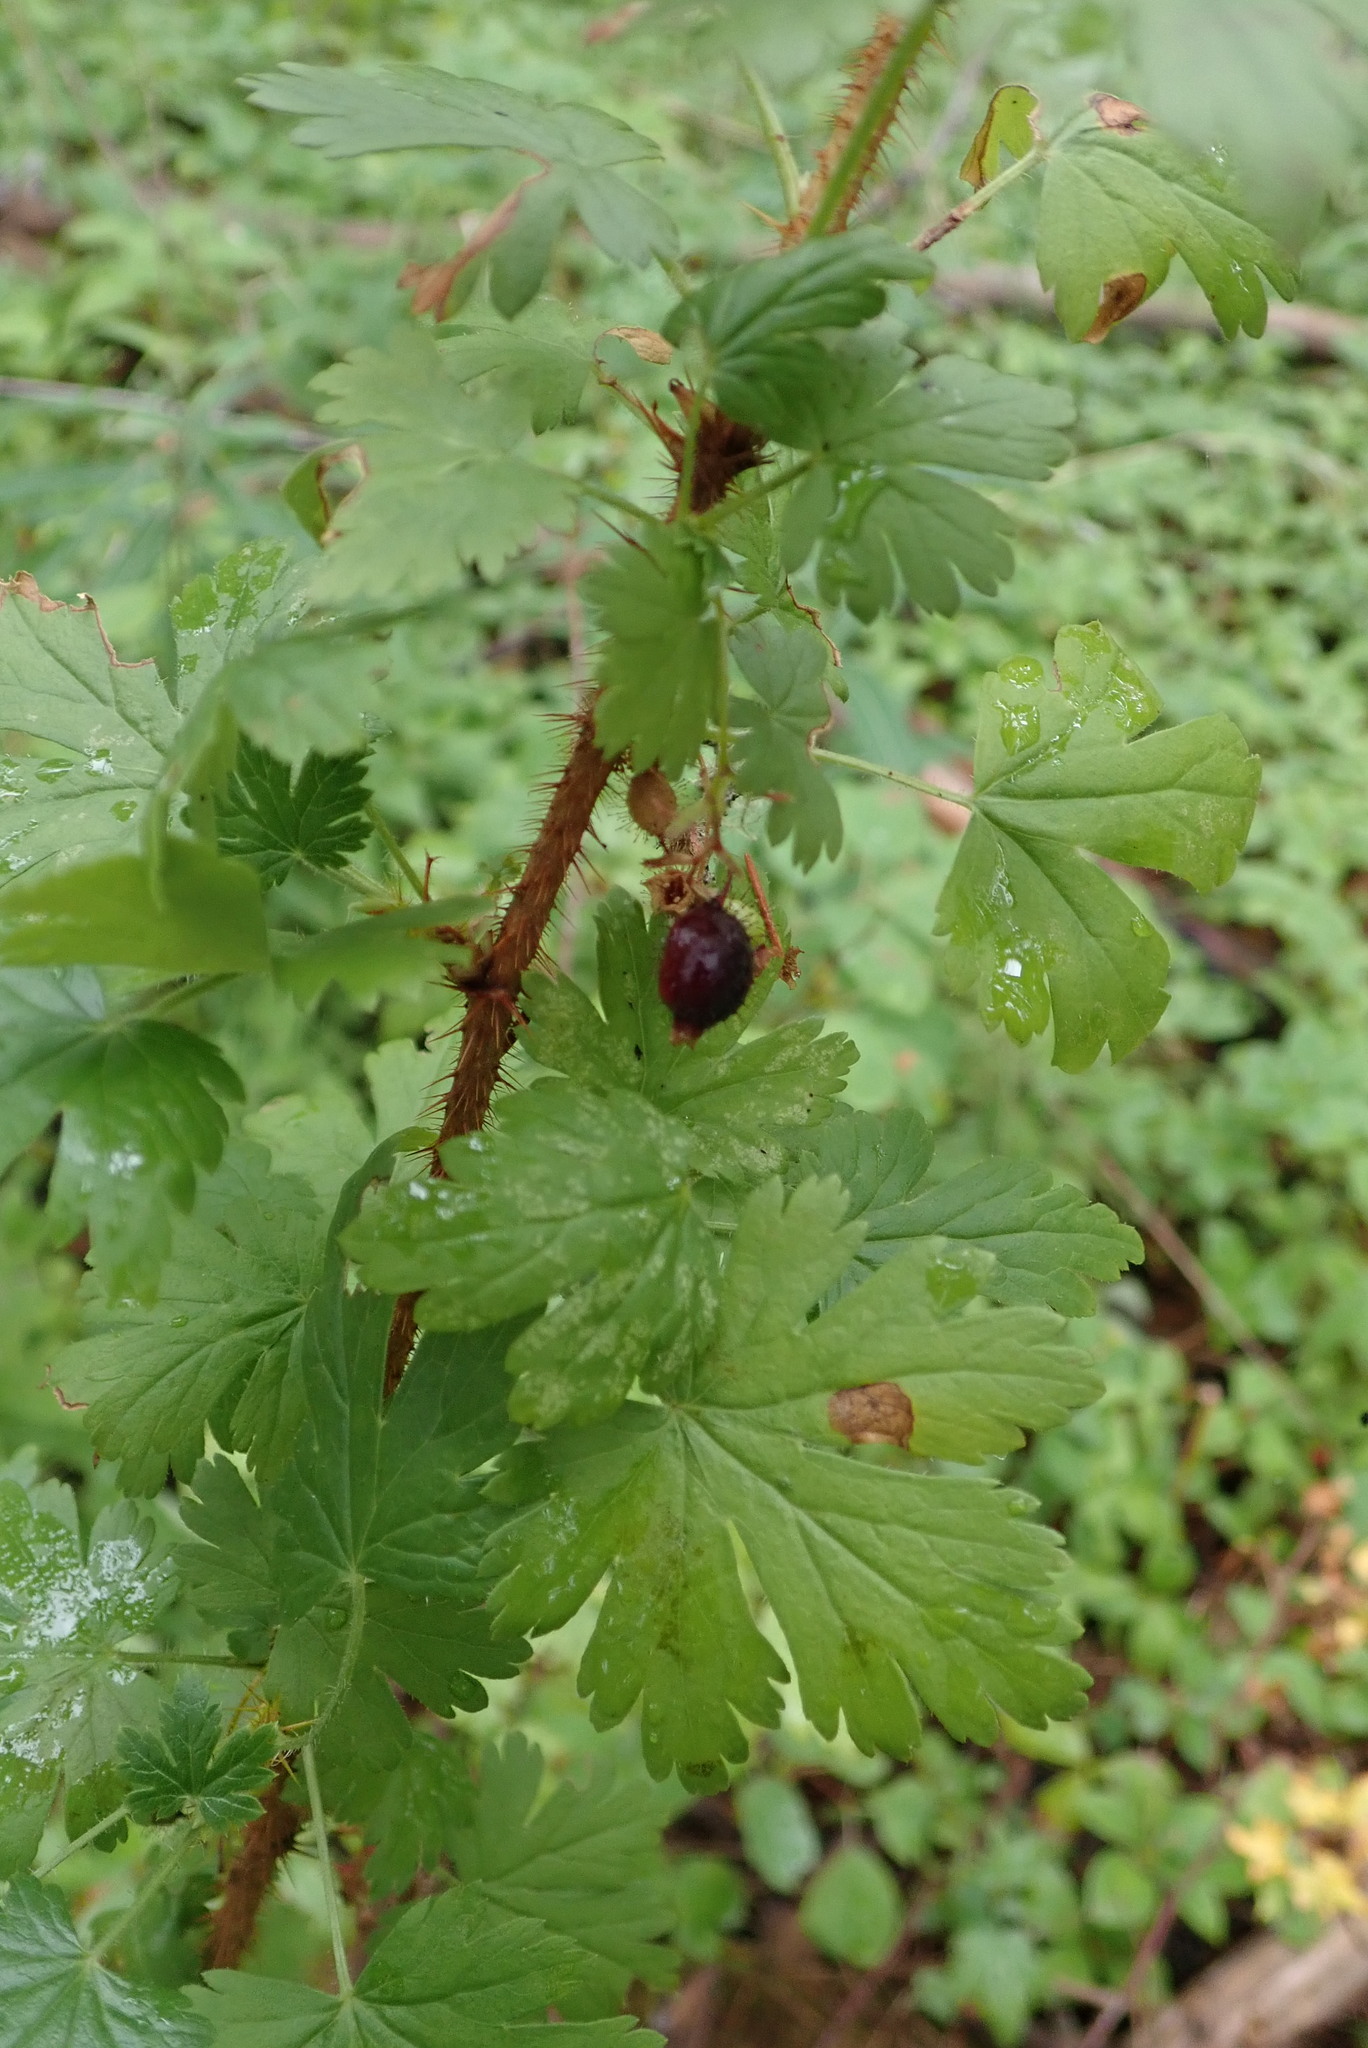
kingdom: Plantae
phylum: Tracheophyta
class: Magnoliopsida
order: Saxifragales
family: Grossulariaceae
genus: Ribes
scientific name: Ribes lacustre
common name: Black gooseberry
